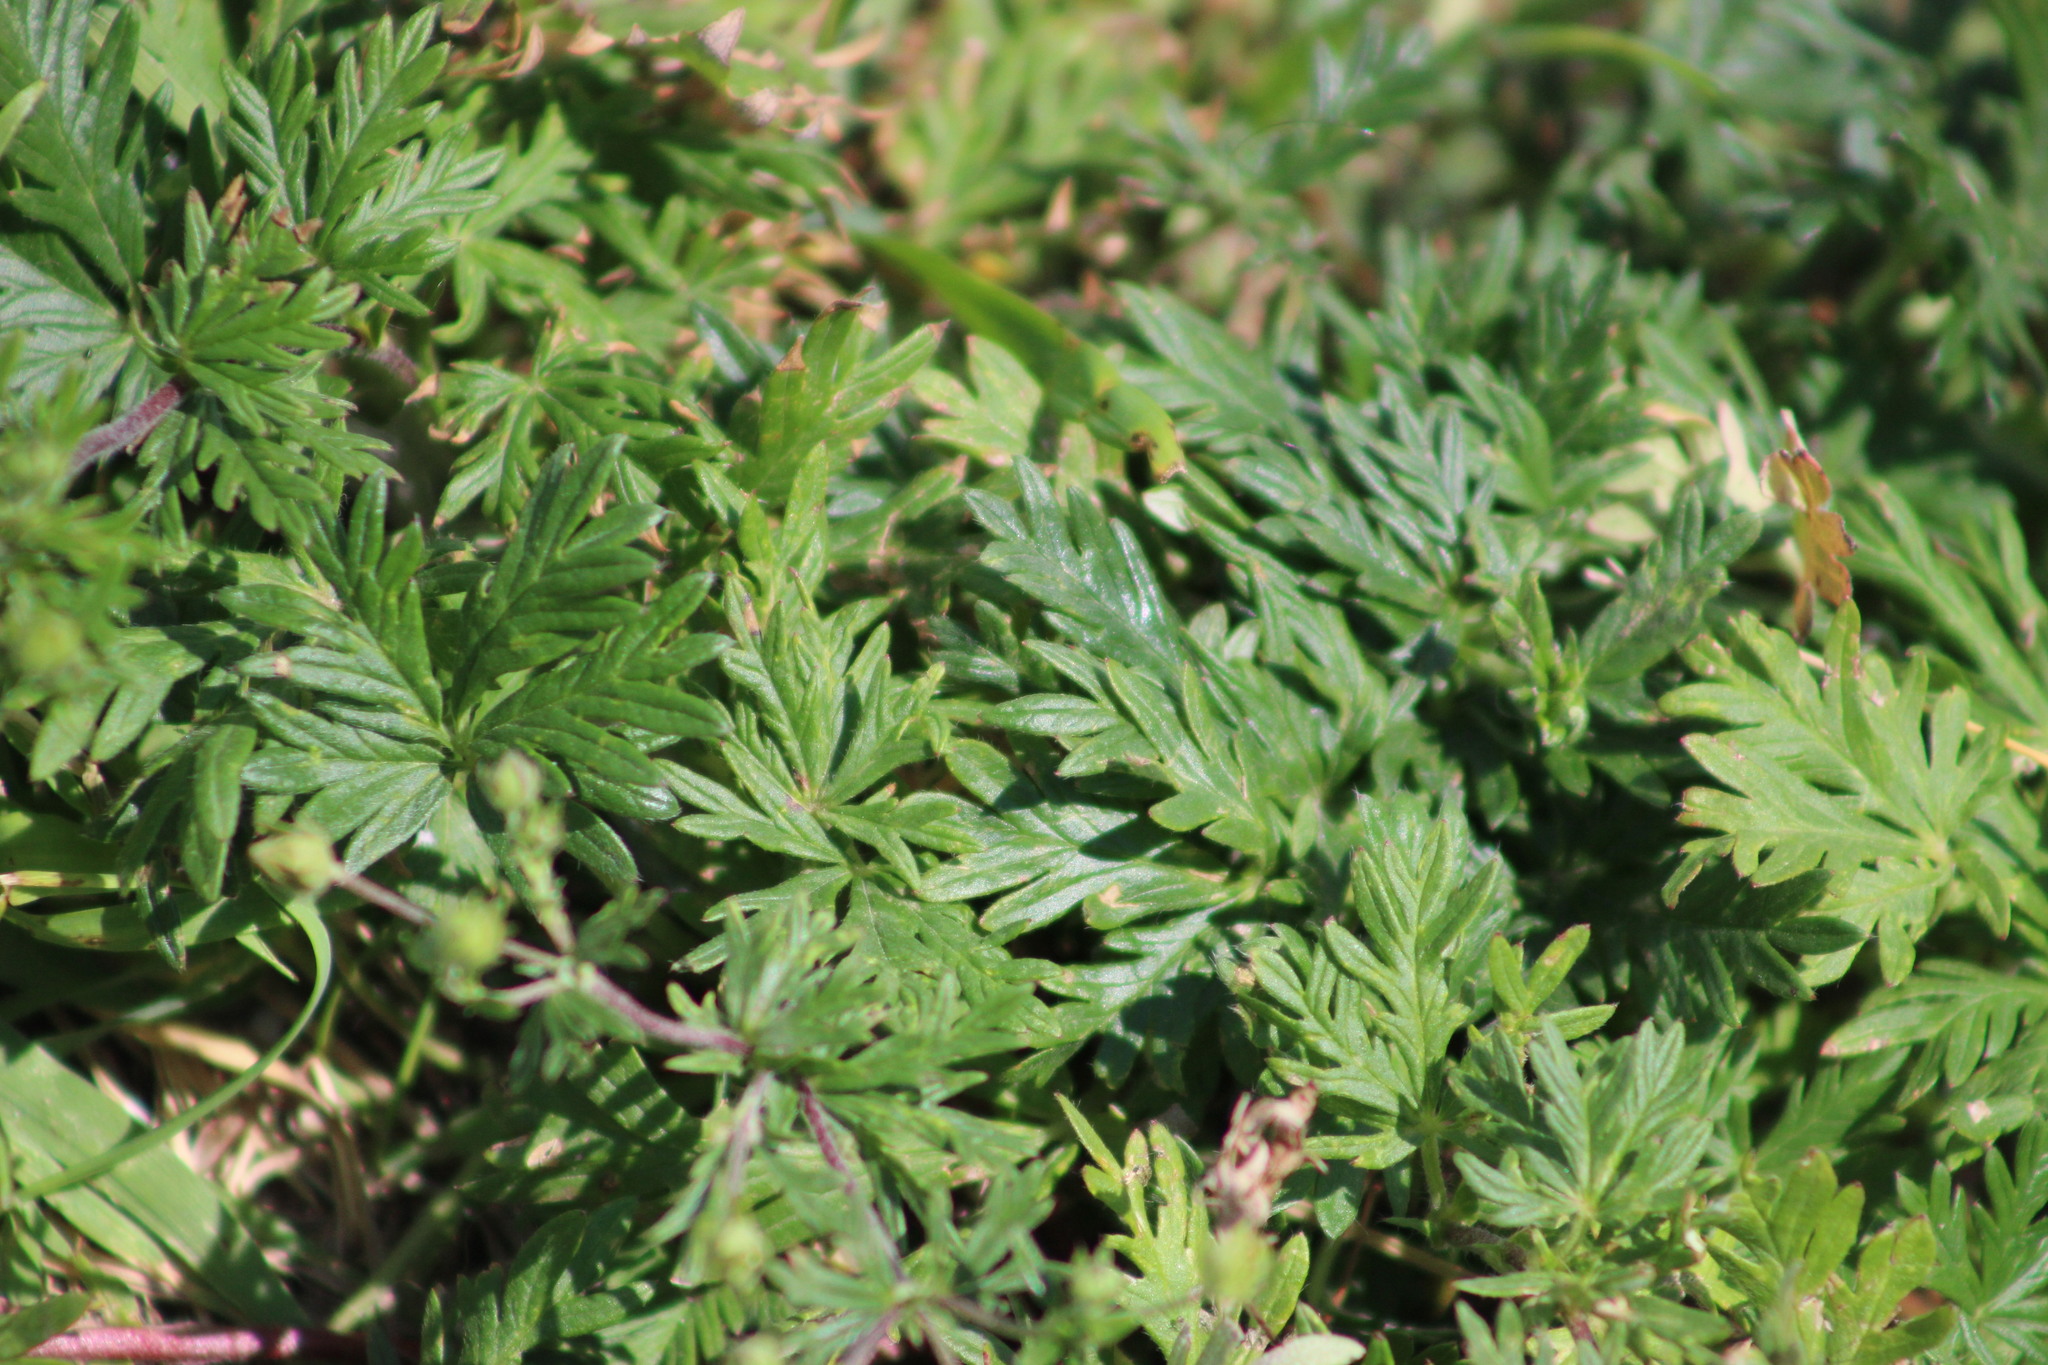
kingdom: Plantae
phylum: Tracheophyta
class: Magnoliopsida
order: Rosales
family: Rosaceae
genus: Potentilla
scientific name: Potentilla argentea
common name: Hoary cinquefoil
